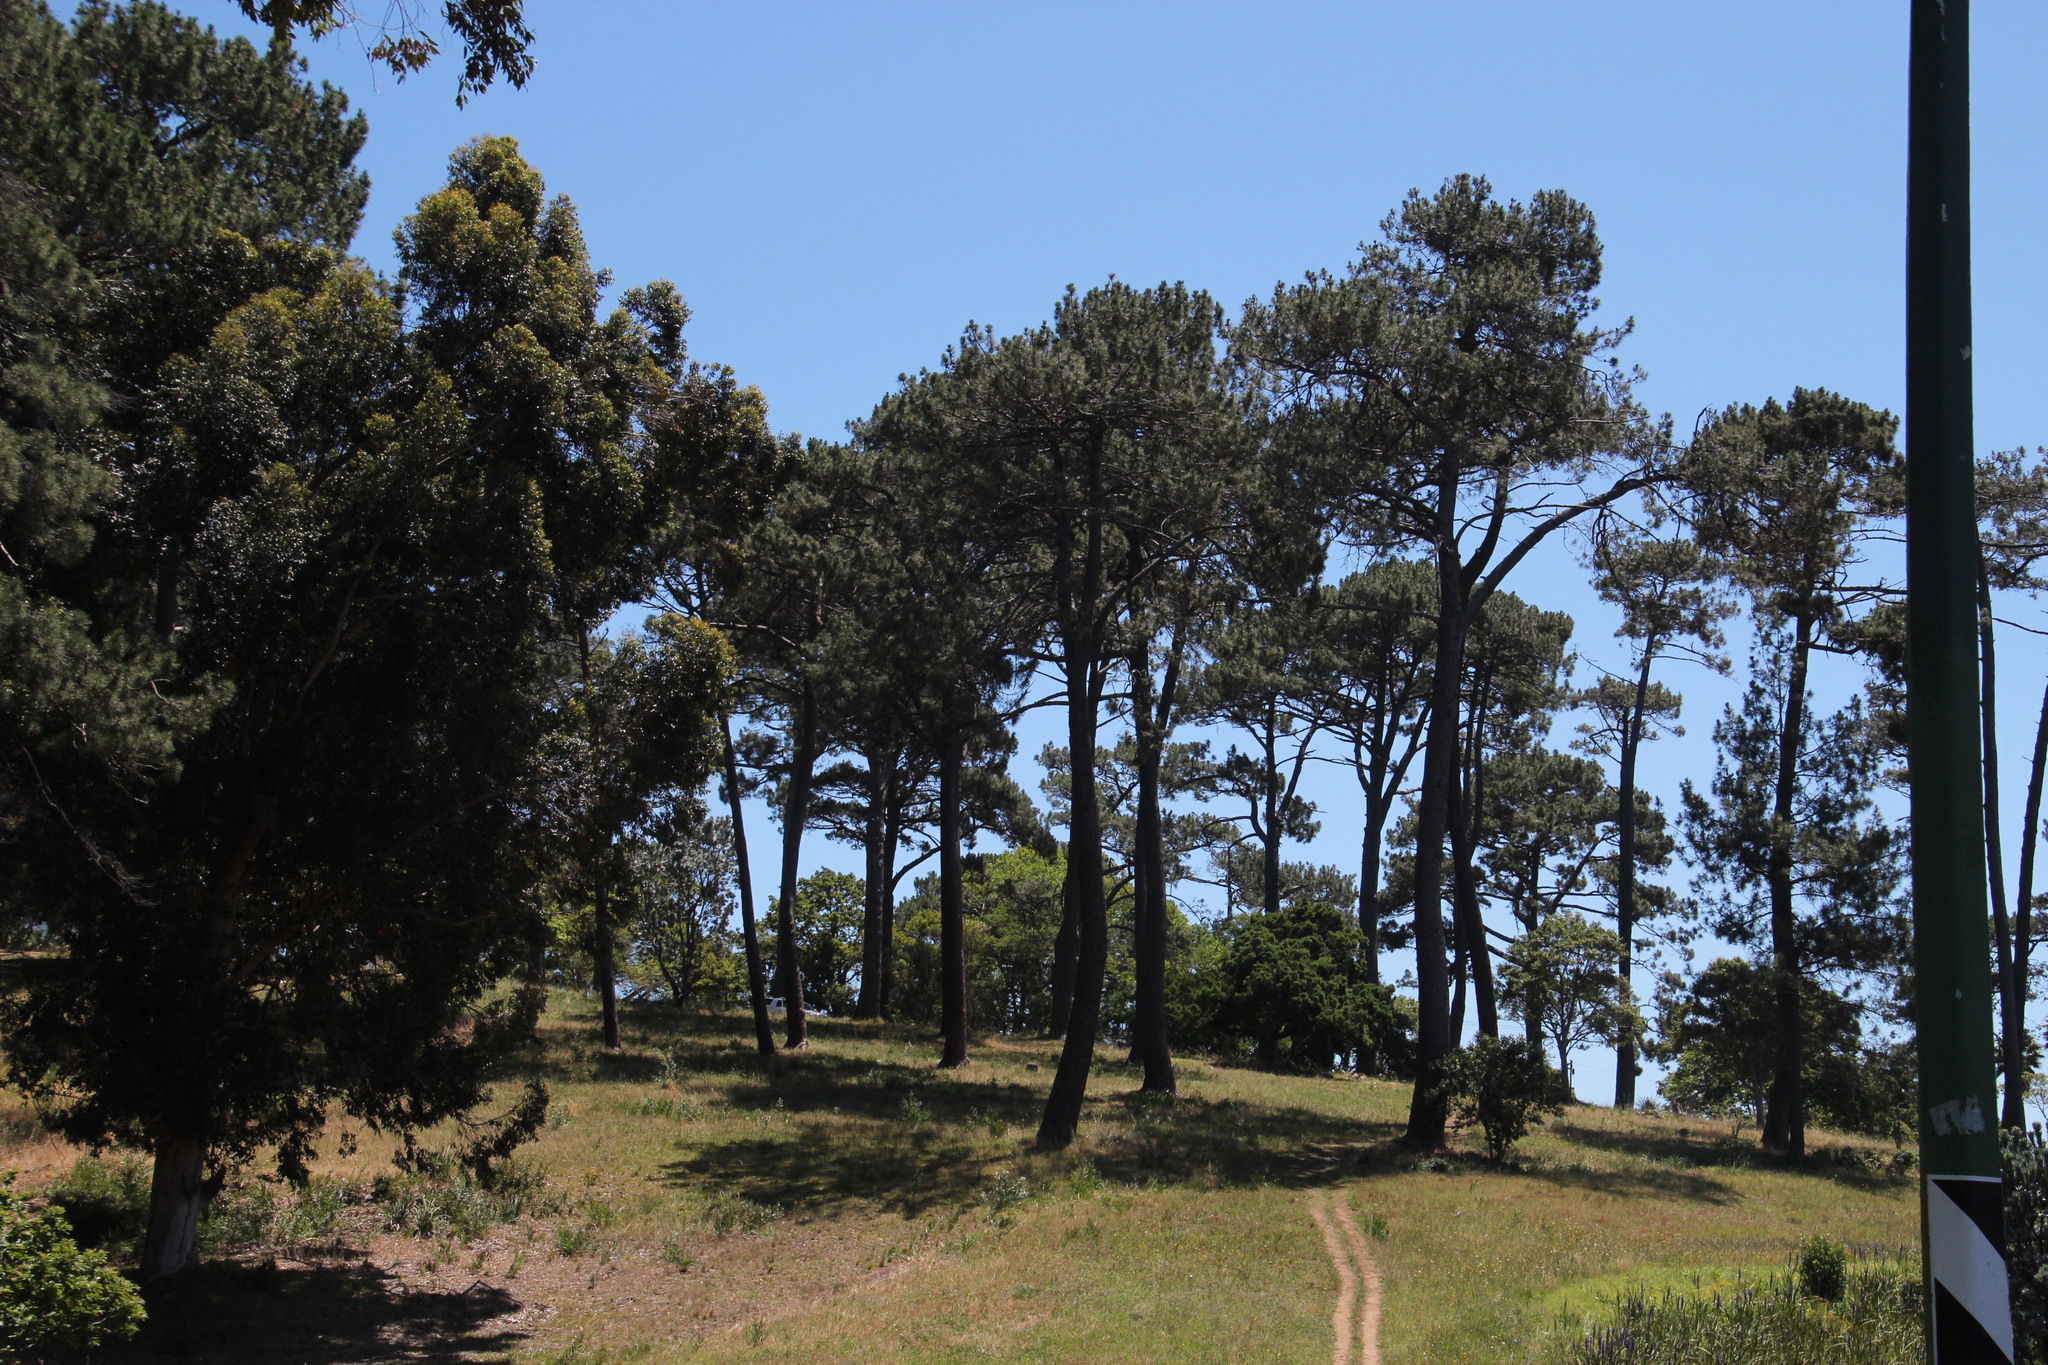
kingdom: Plantae
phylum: Tracheophyta
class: Pinopsida
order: Pinales
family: Pinaceae
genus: Pinus
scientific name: Pinus pinea
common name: Italian stone pine
